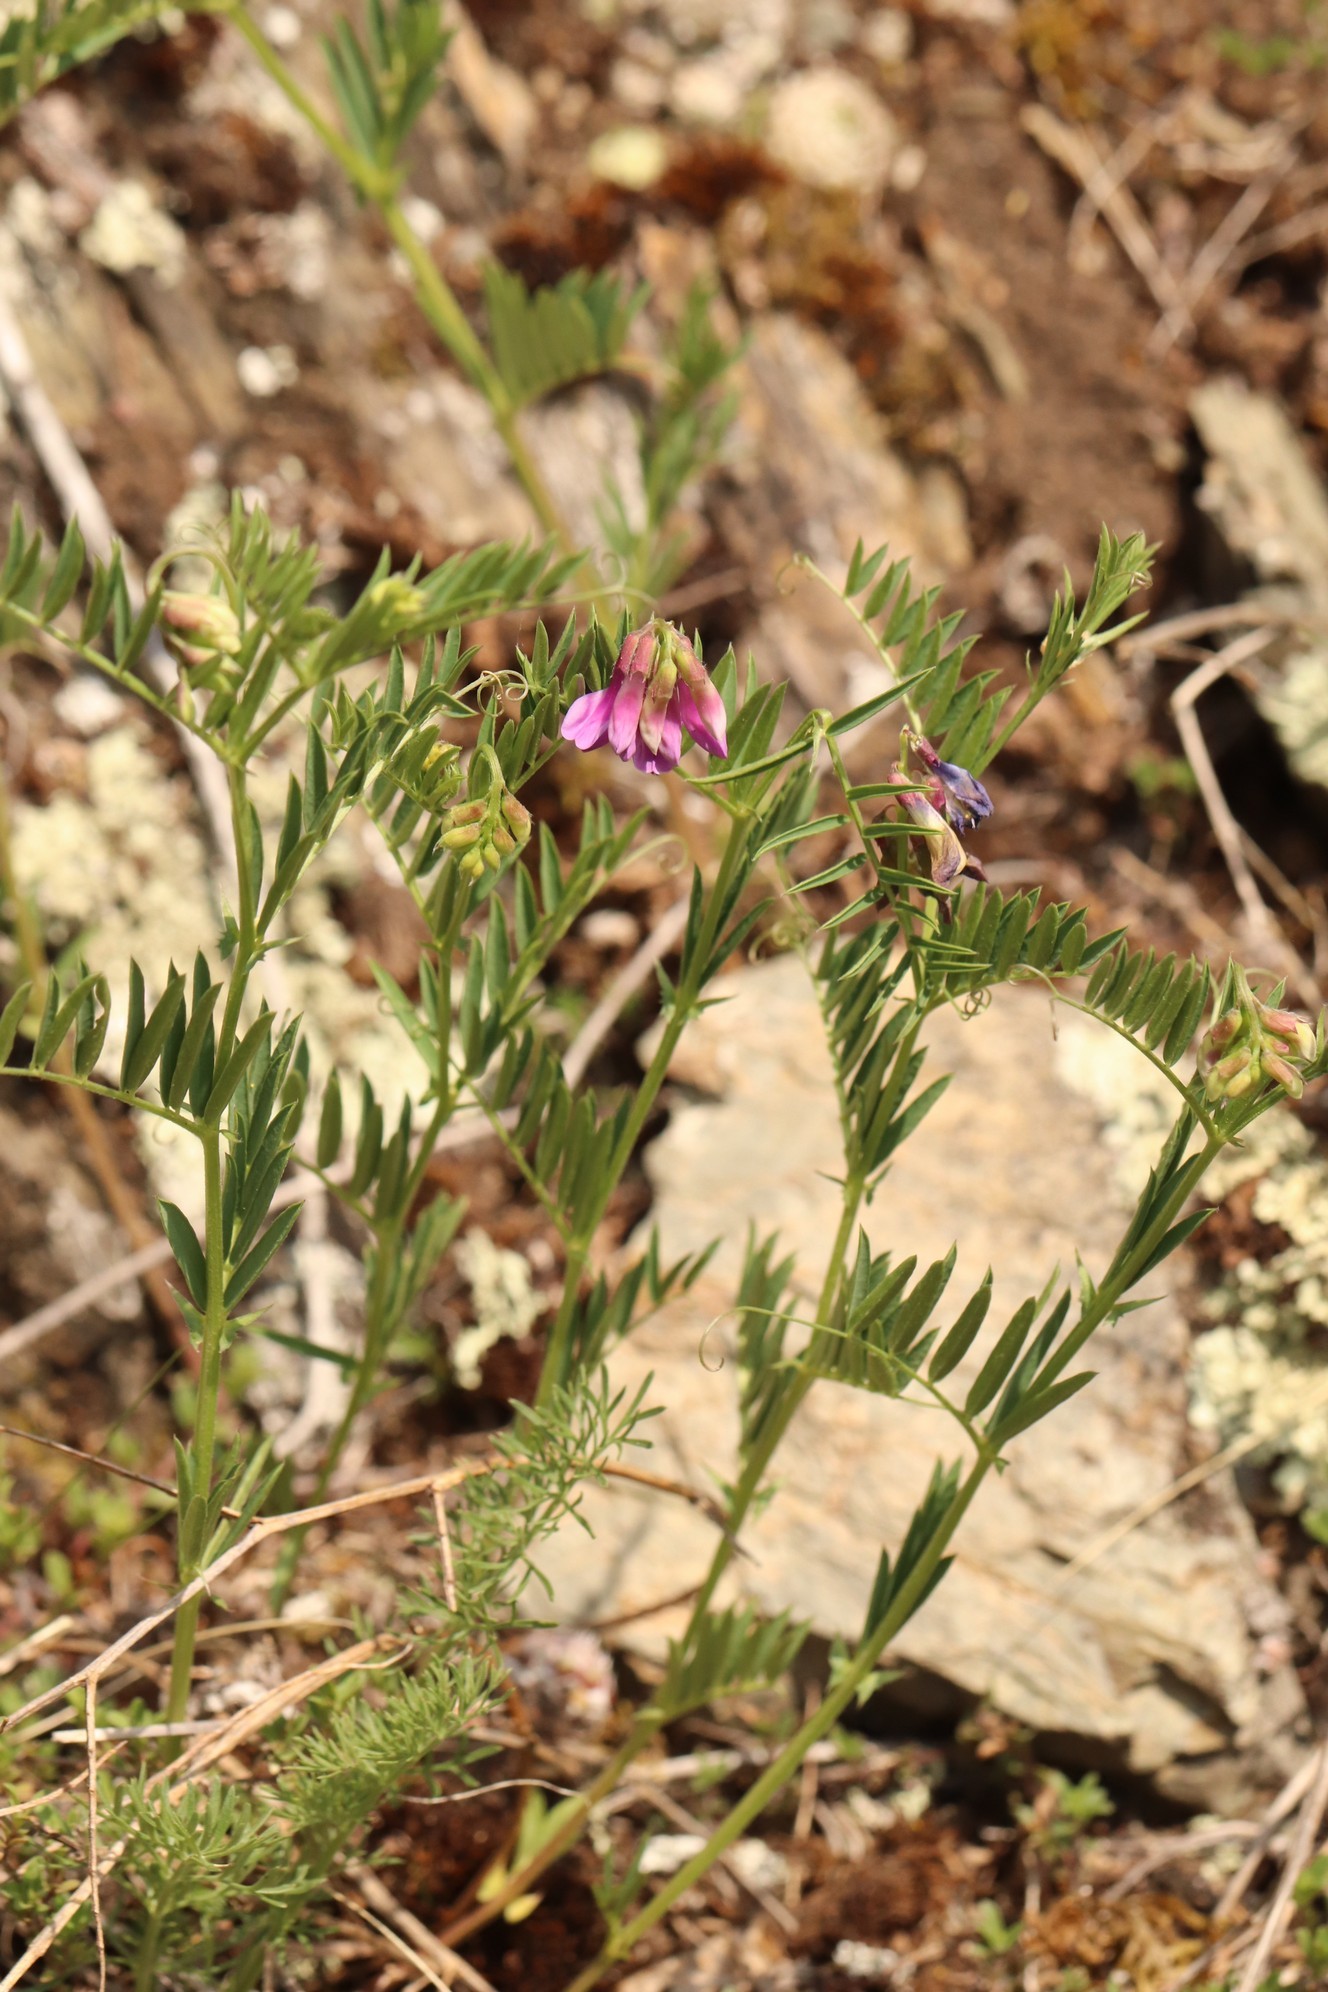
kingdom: Plantae
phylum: Tracheophyta
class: Magnoliopsida
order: Fabales
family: Fabaceae
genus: Vicia
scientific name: Vicia megalotropis
